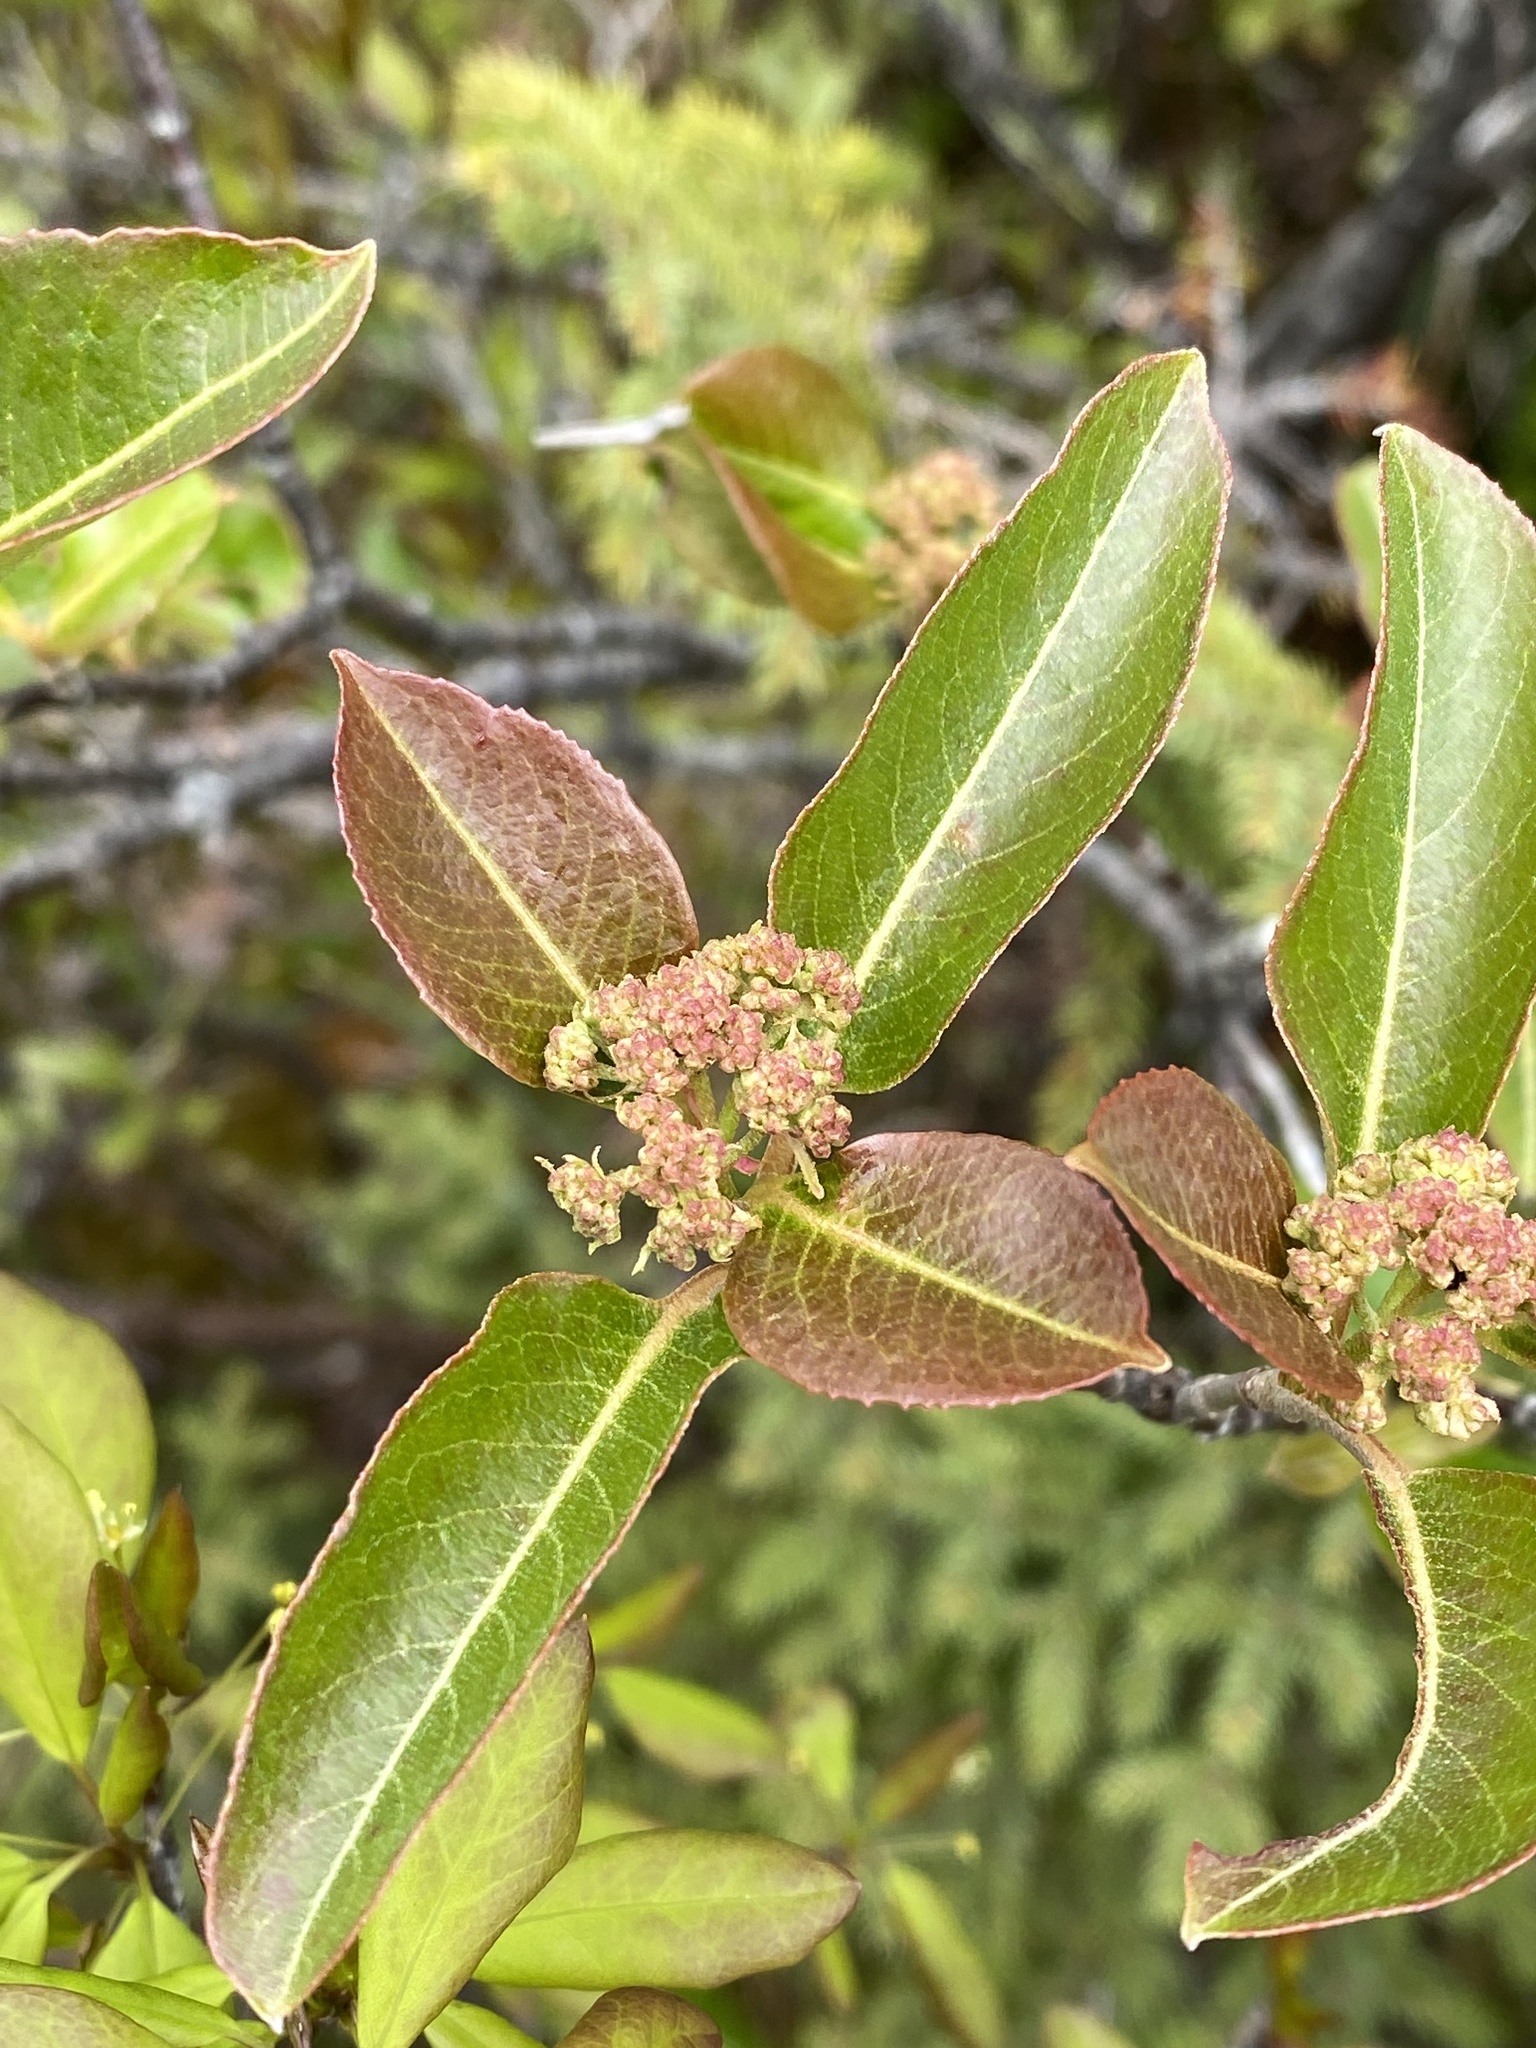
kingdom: Plantae
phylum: Tracheophyta
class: Magnoliopsida
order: Dipsacales
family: Viburnaceae
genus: Viburnum
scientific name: Viburnum cassinoides
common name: Swamp haw
